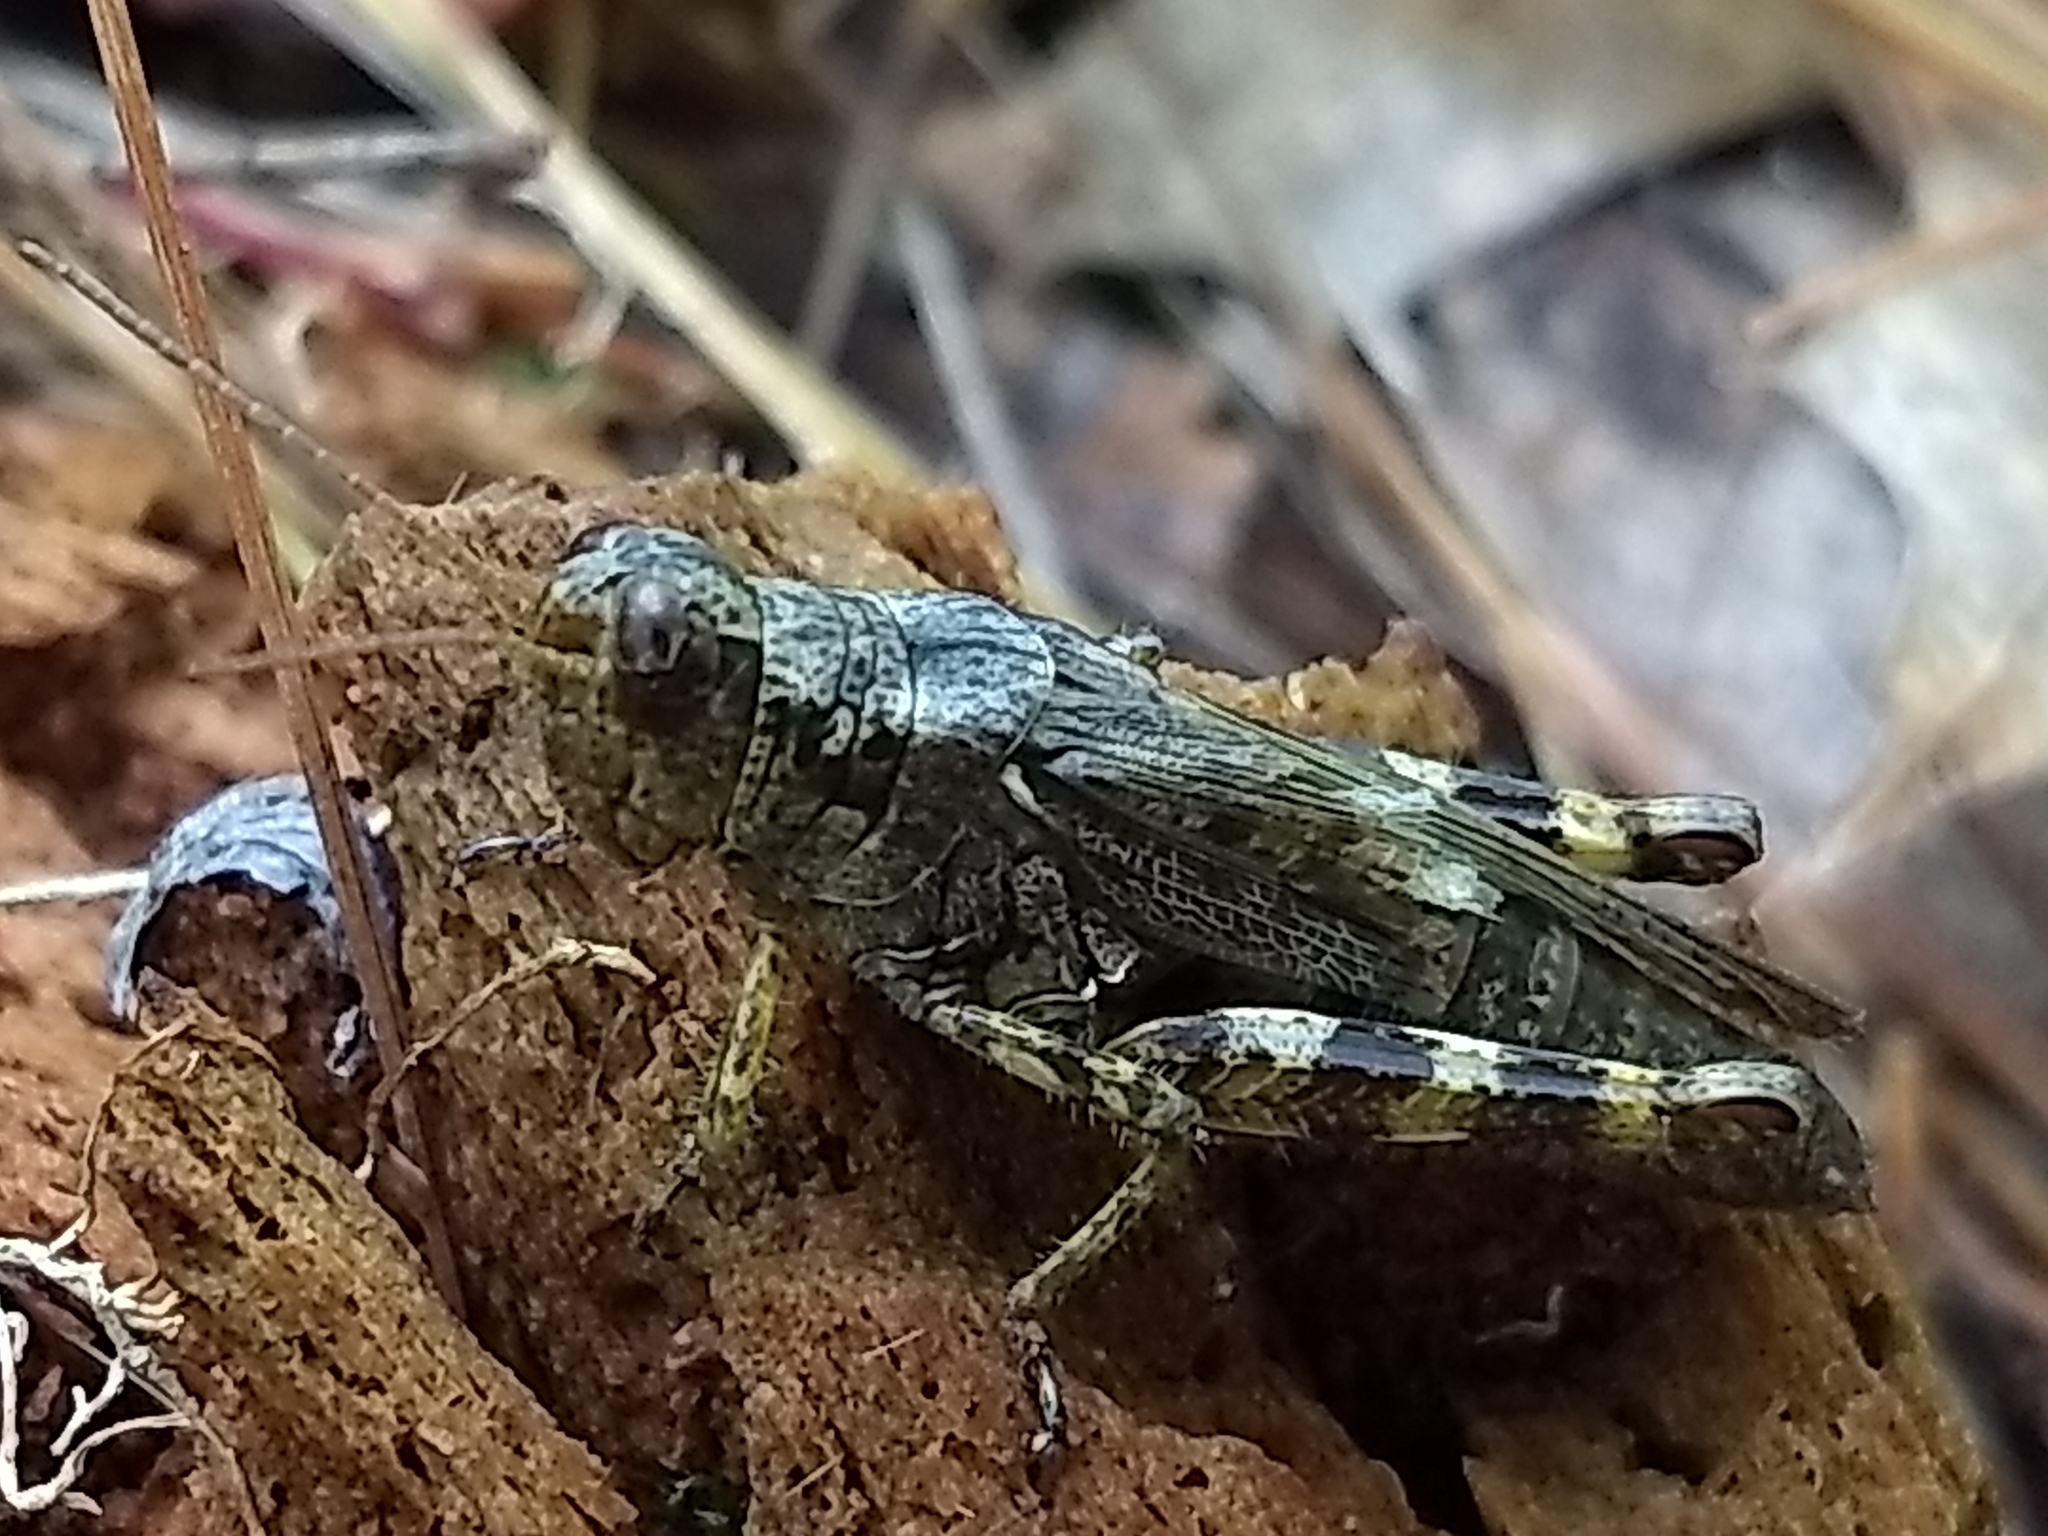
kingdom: Animalia
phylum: Arthropoda
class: Insecta
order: Orthoptera
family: Acrididae
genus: Melanoplus
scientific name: Melanoplus punctulatus
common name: Pine-tree spur-throat grasshopper
